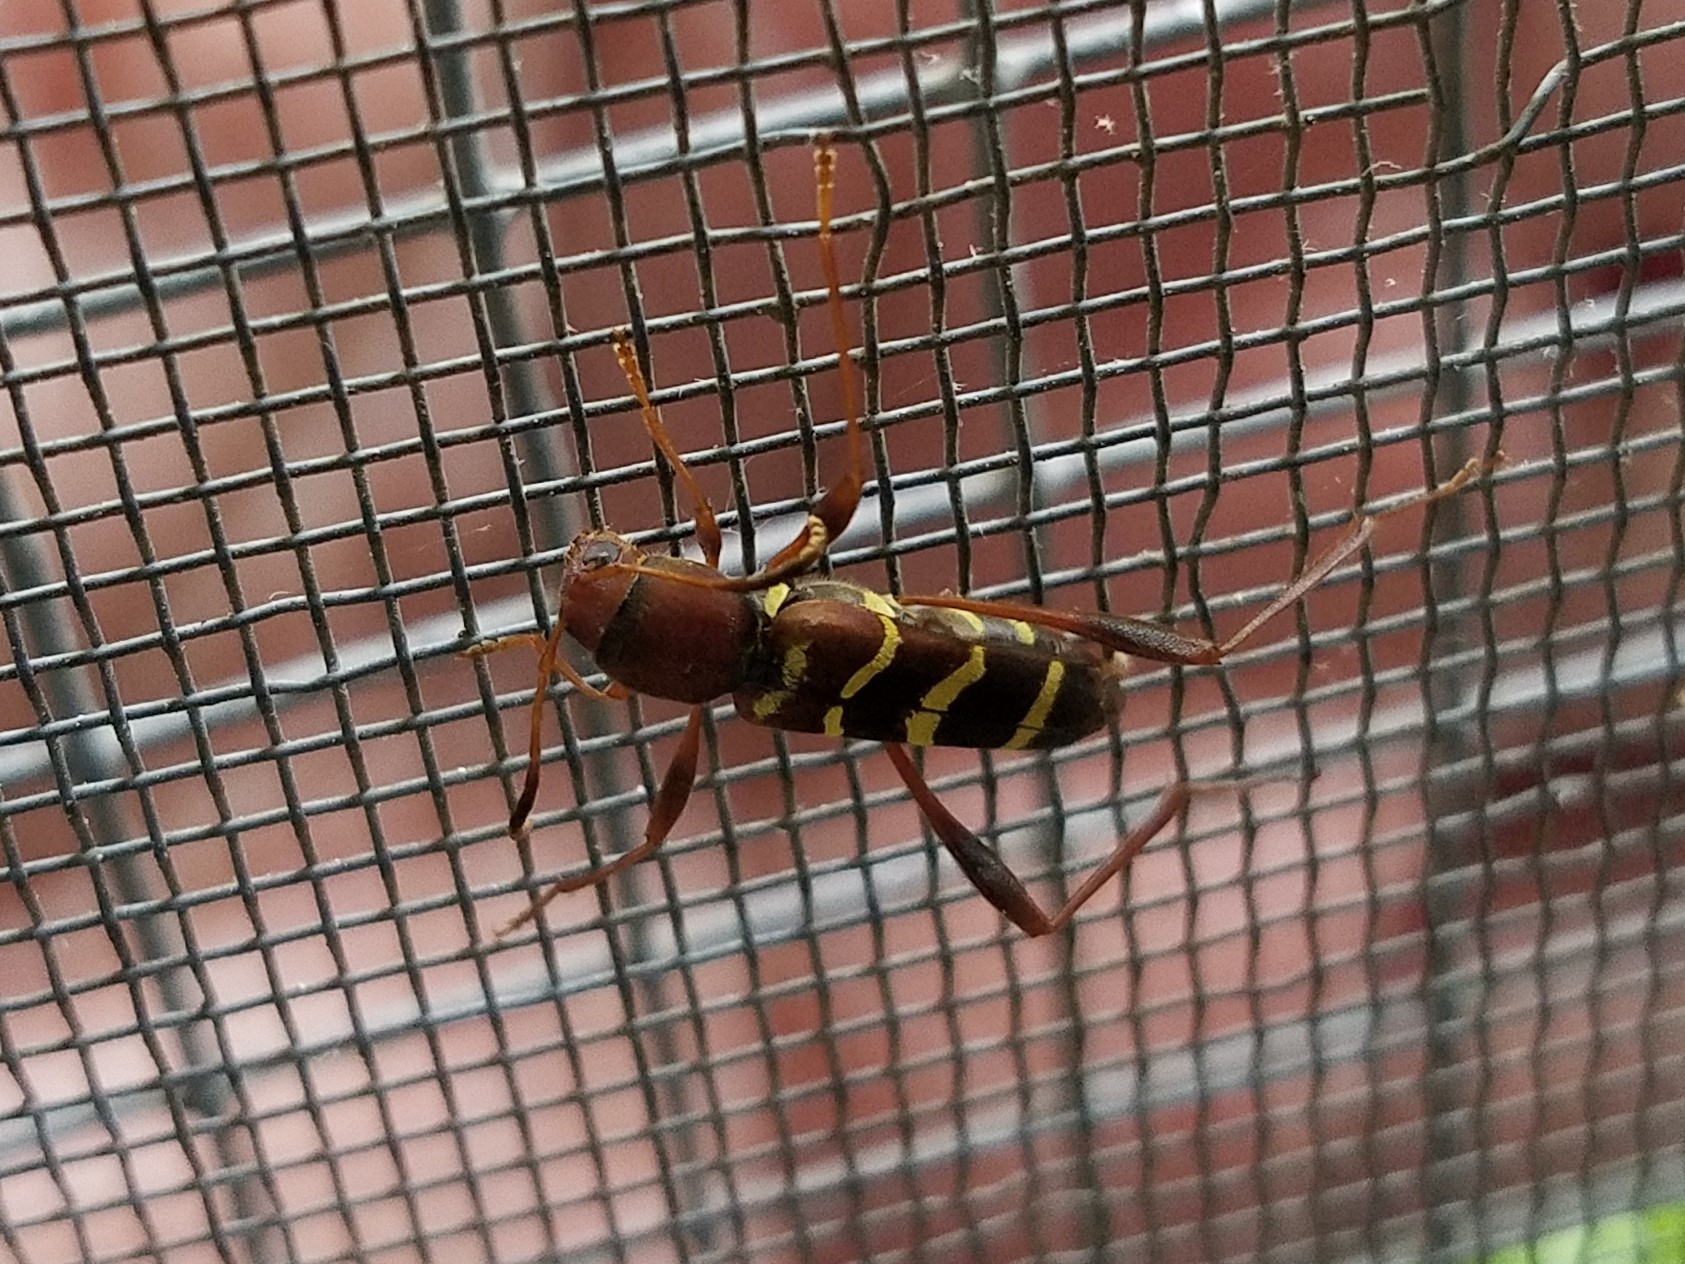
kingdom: Animalia
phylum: Arthropoda
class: Insecta
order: Coleoptera
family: Cerambycidae
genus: Neoclytus
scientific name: Neoclytus acuminatus
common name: Read-headed ash borer
